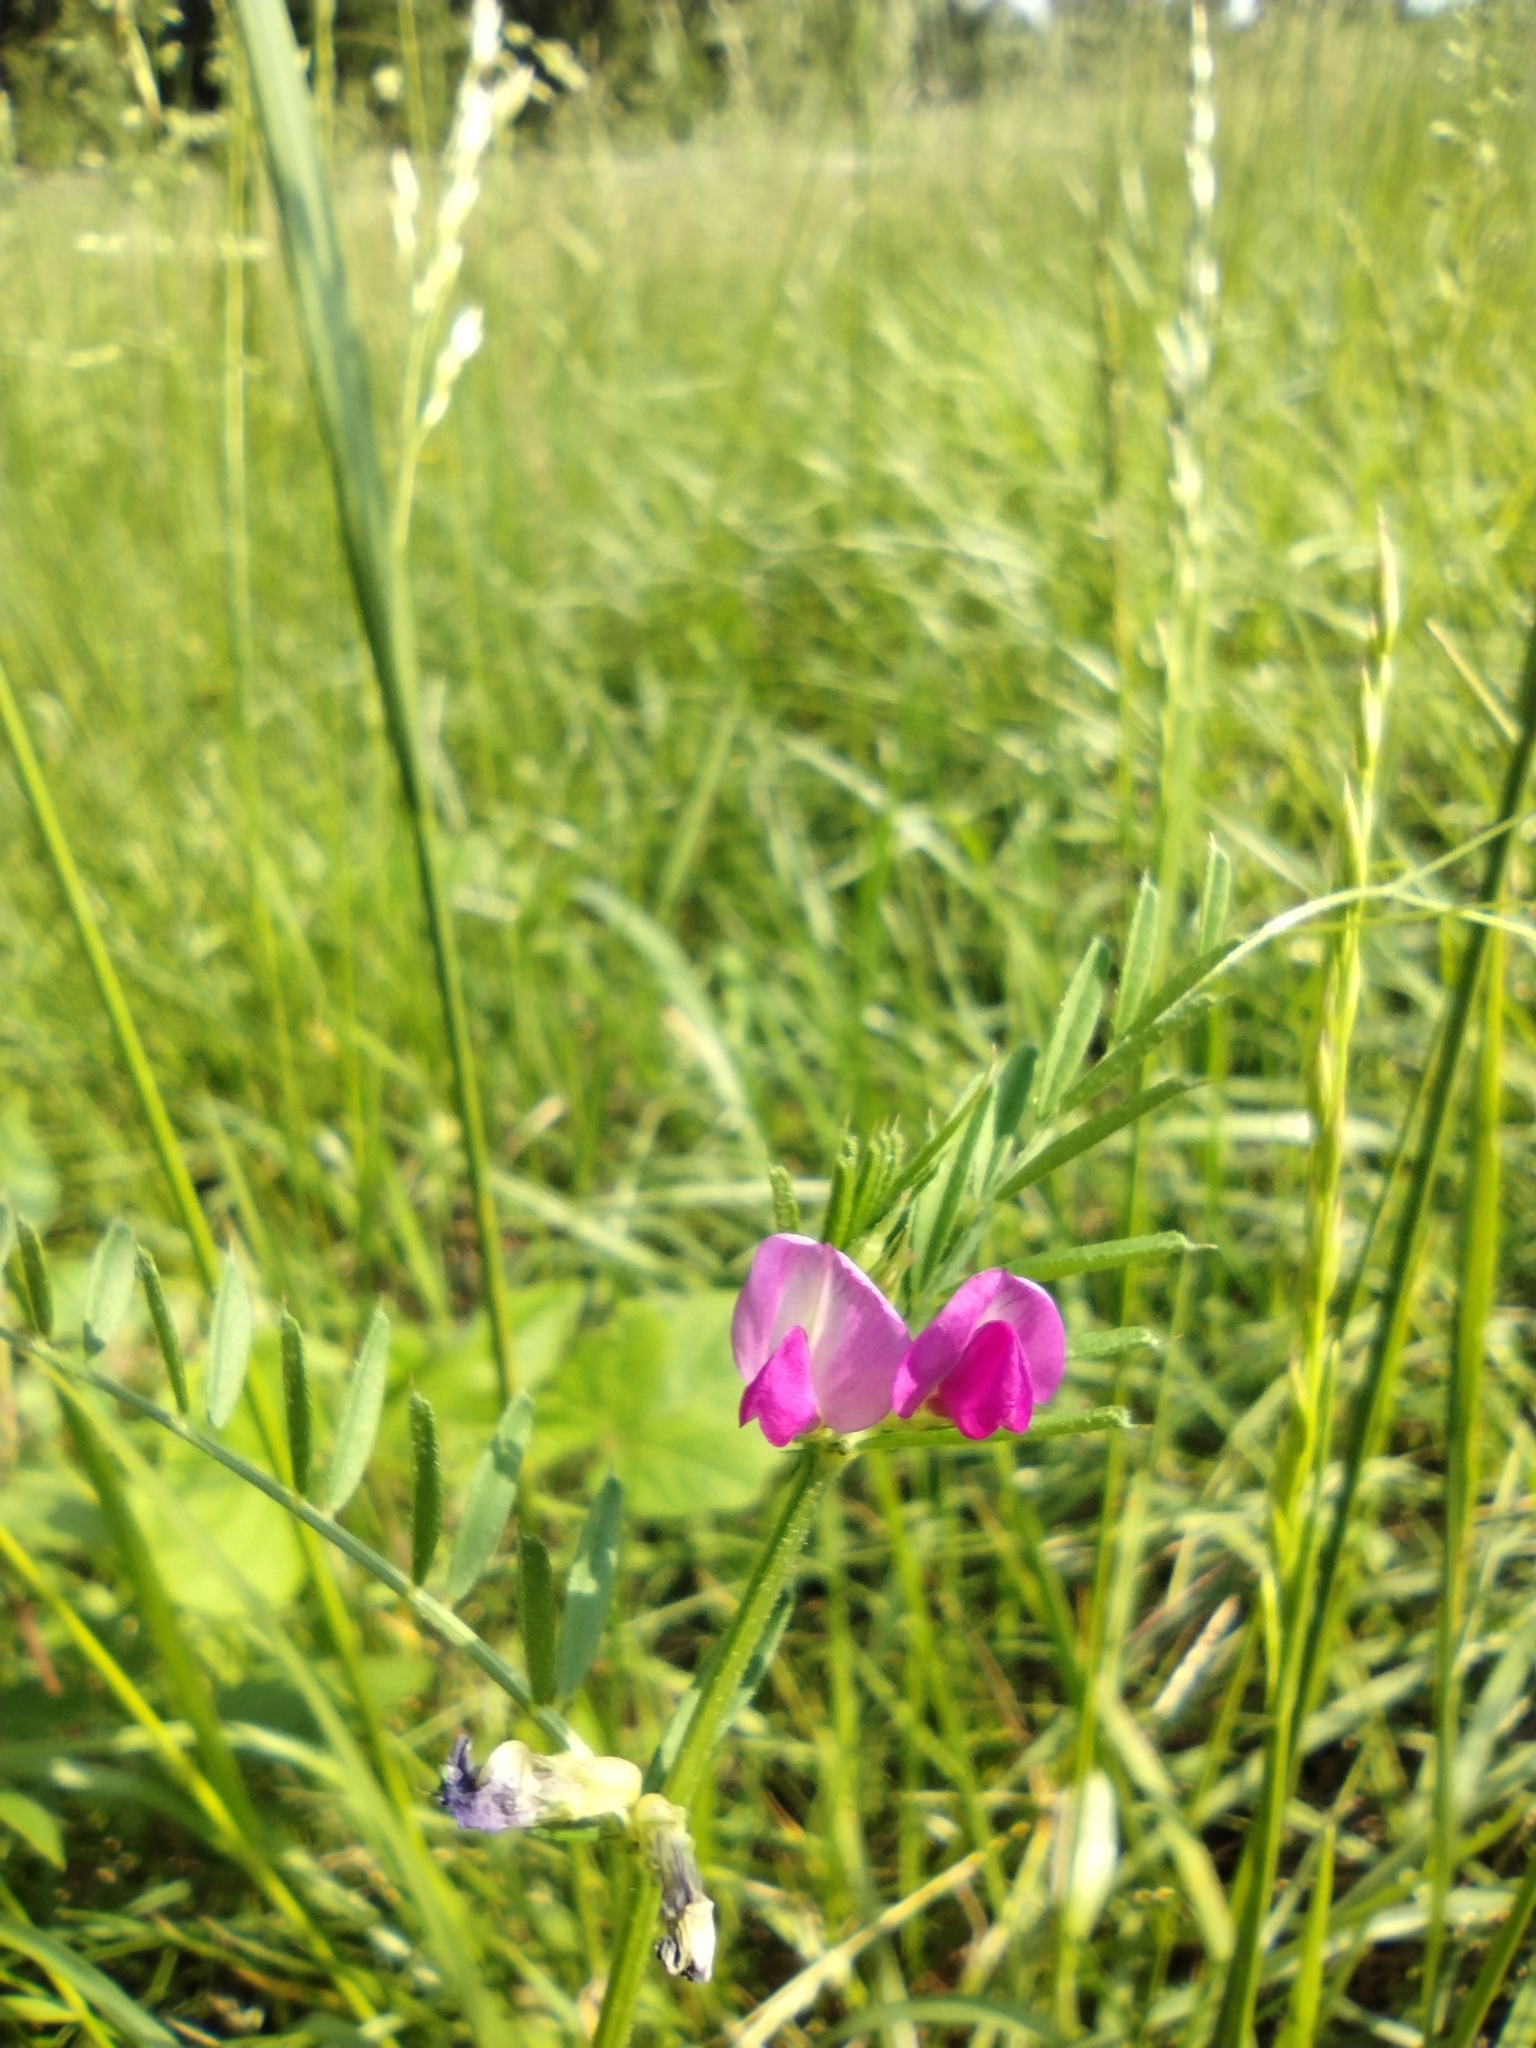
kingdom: Plantae
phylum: Tracheophyta
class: Magnoliopsida
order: Fabales
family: Fabaceae
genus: Vicia
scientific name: Vicia sativa
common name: Garden vetch
